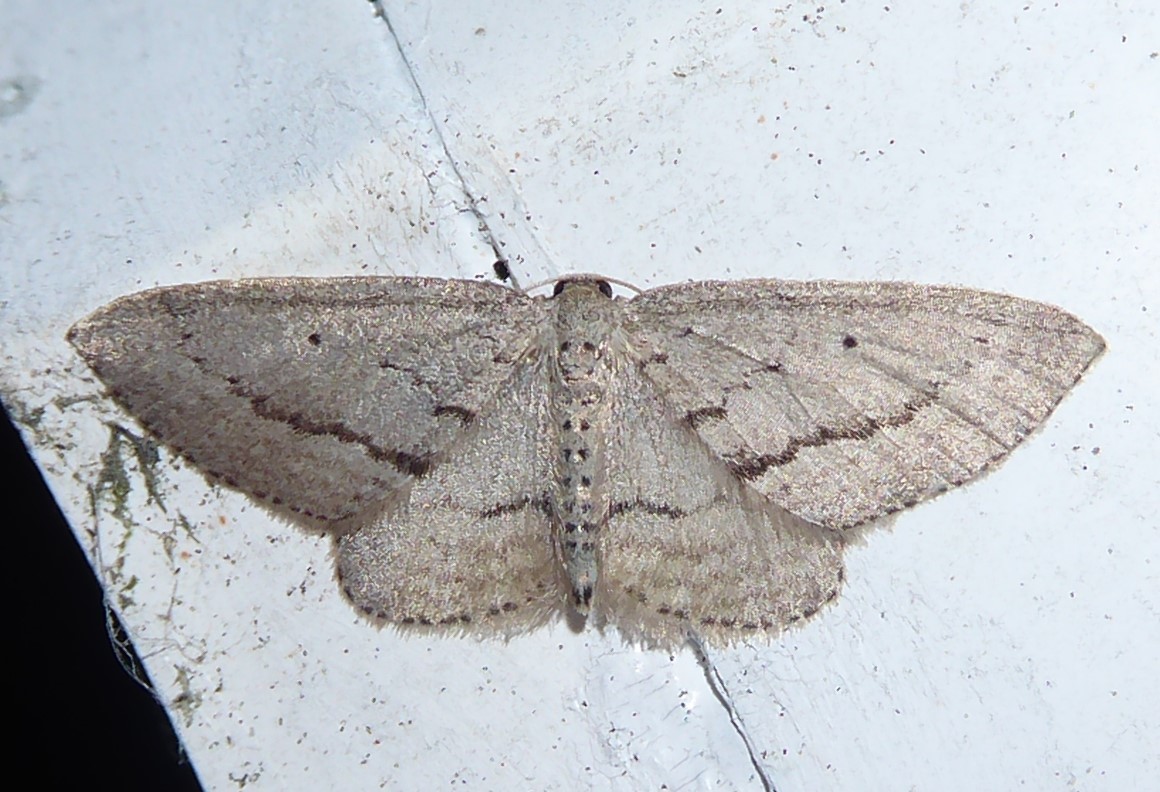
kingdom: Animalia
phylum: Arthropoda
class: Insecta
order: Lepidoptera
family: Geometridae
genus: Poecilasthena
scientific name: Poecilasthena schistaria
